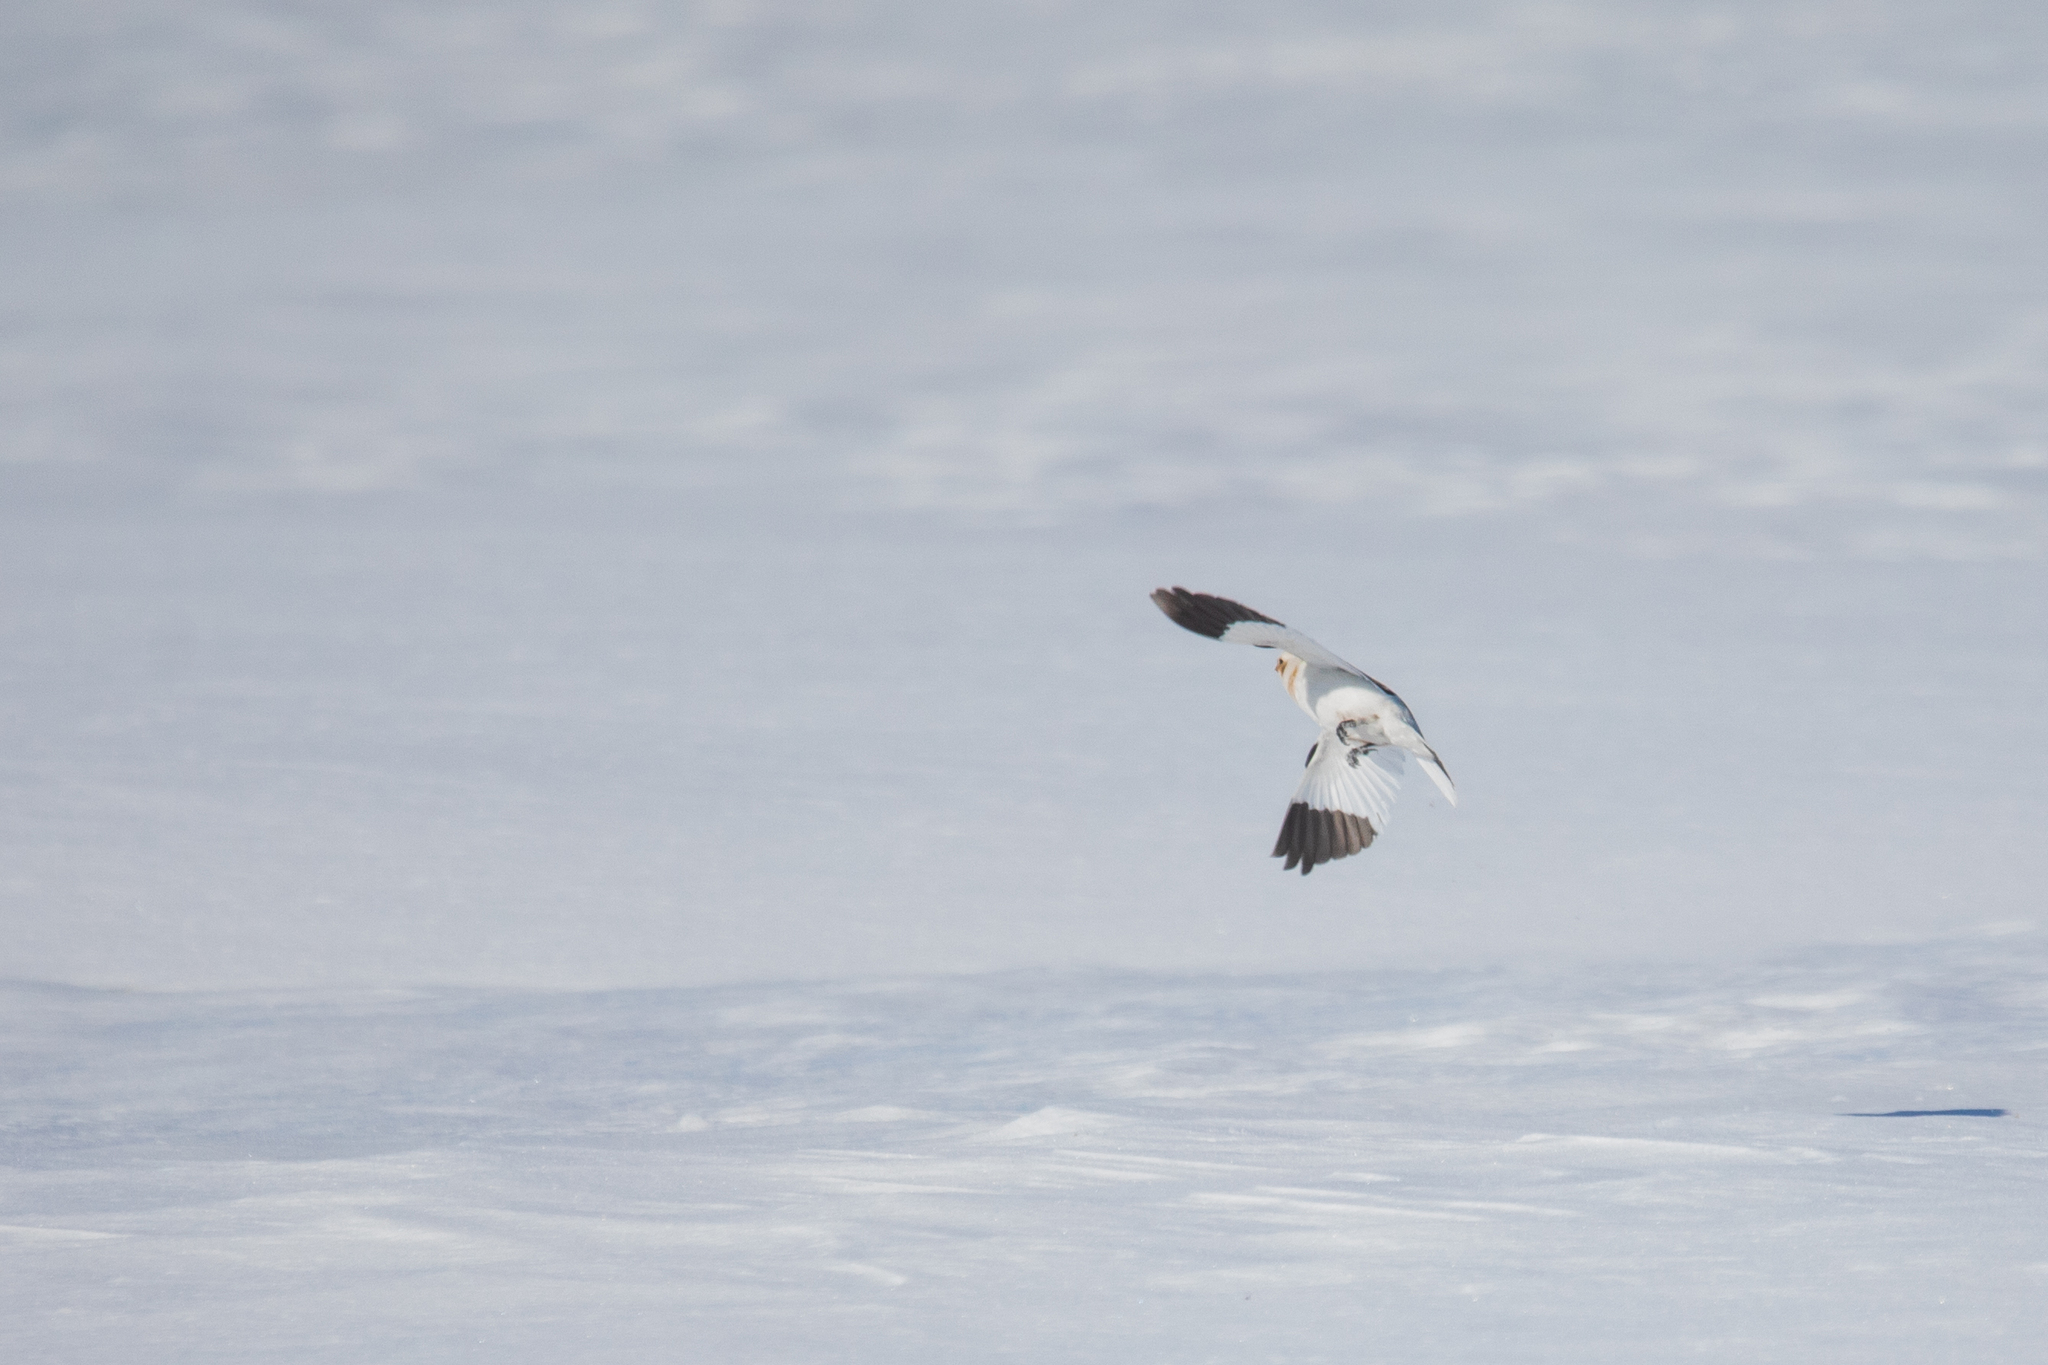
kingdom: Animalia
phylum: Chordata
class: Aves
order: Passeriformes
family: Calcariidae
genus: Plectrophenax
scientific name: Plectrophenax nivalis
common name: Snow bunting
